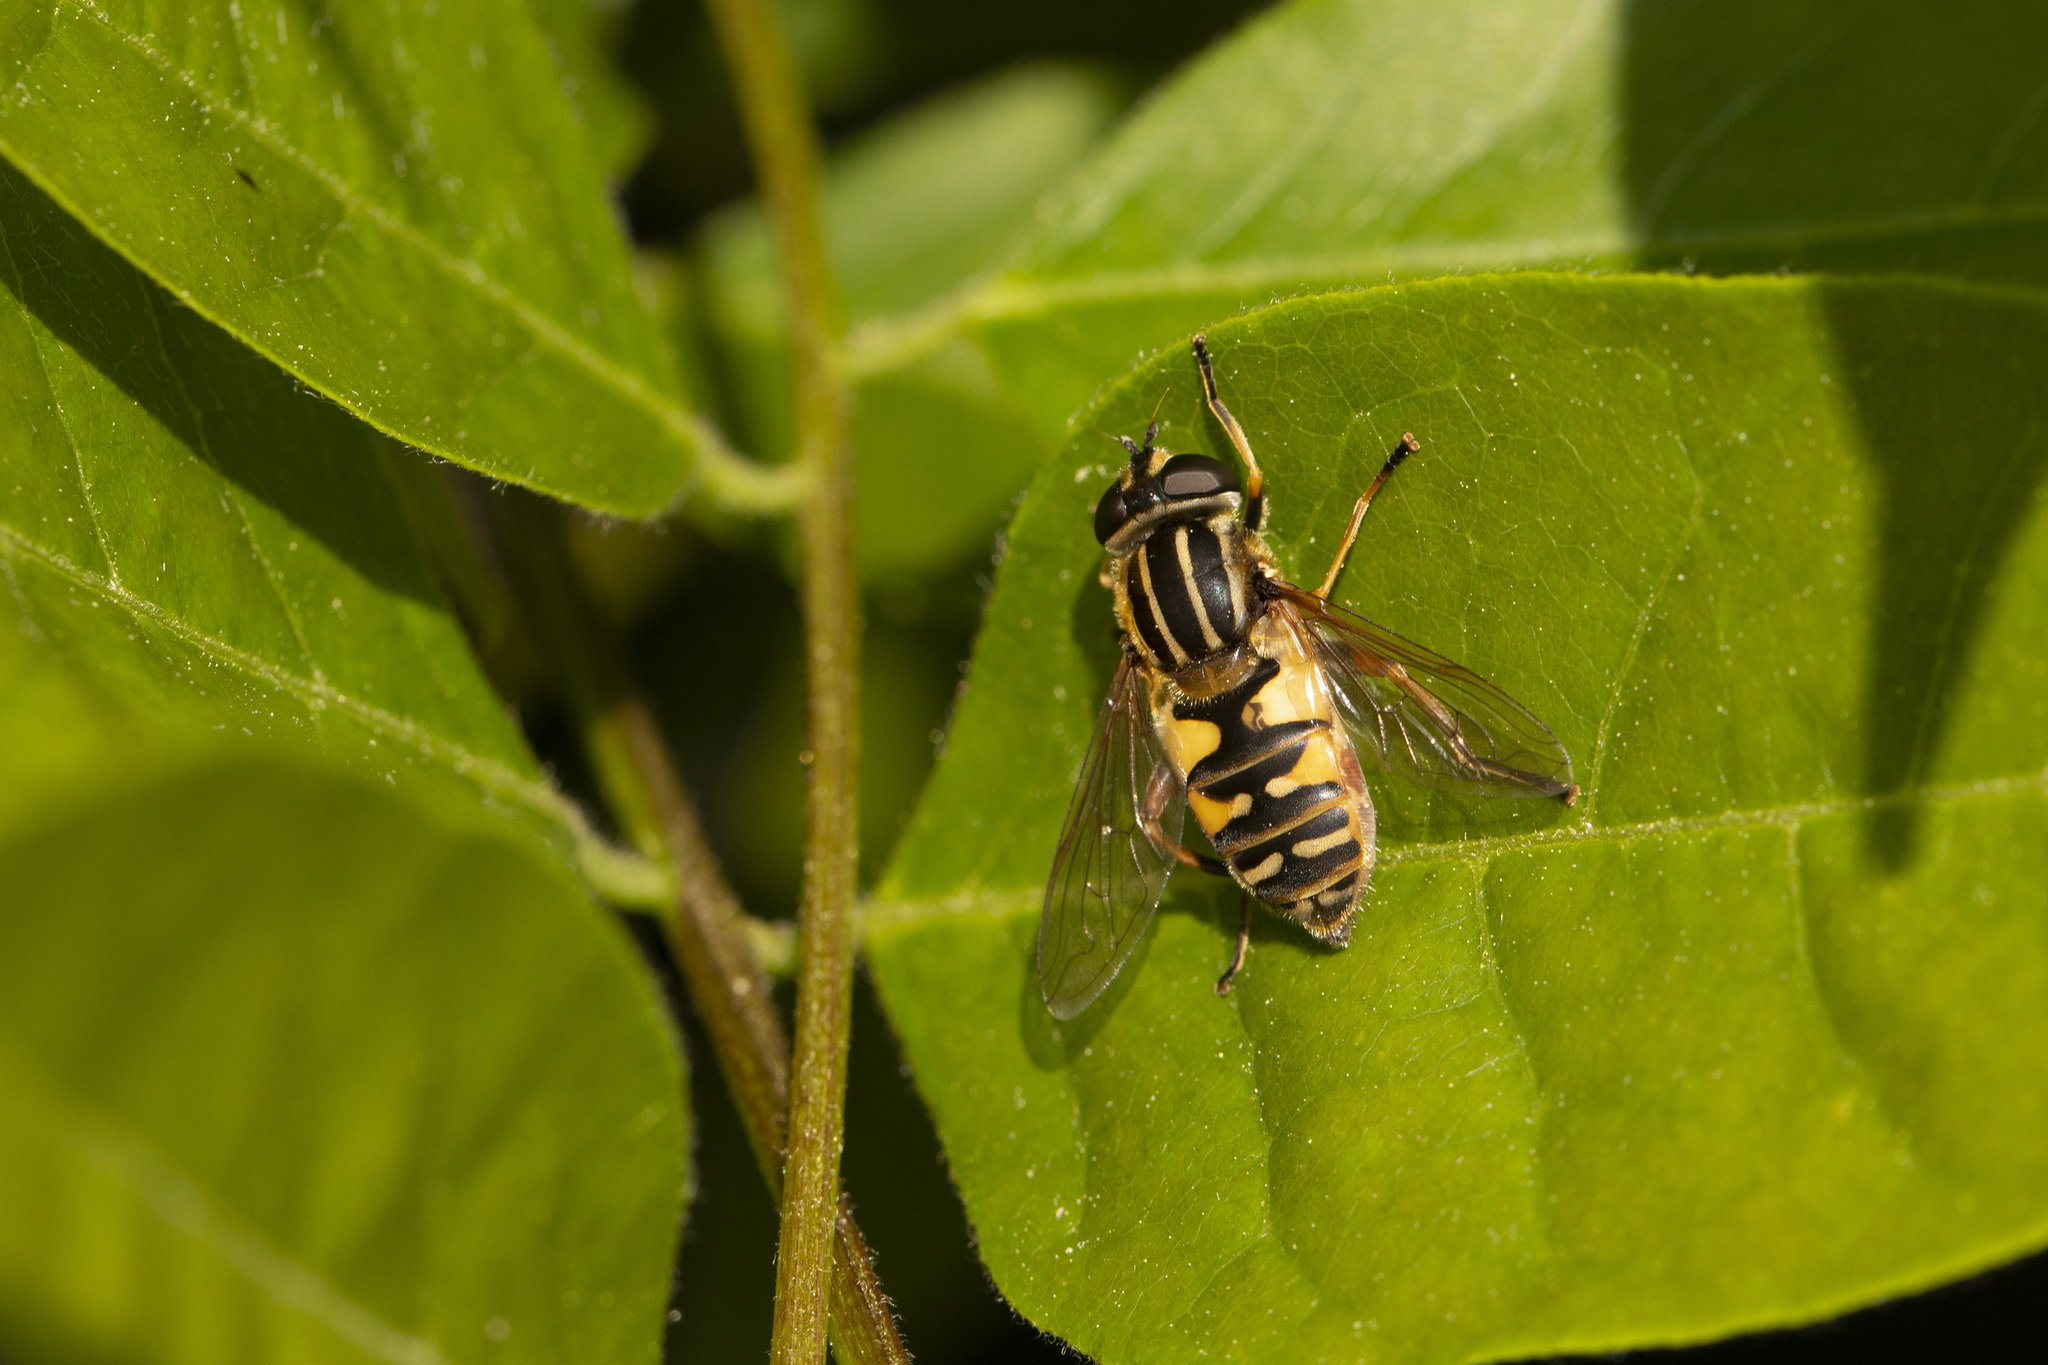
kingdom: Animalia
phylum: Arthropoda
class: Insecta
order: Diptera
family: Syrphidae
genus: Helophilus
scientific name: Helophilus pendulus
